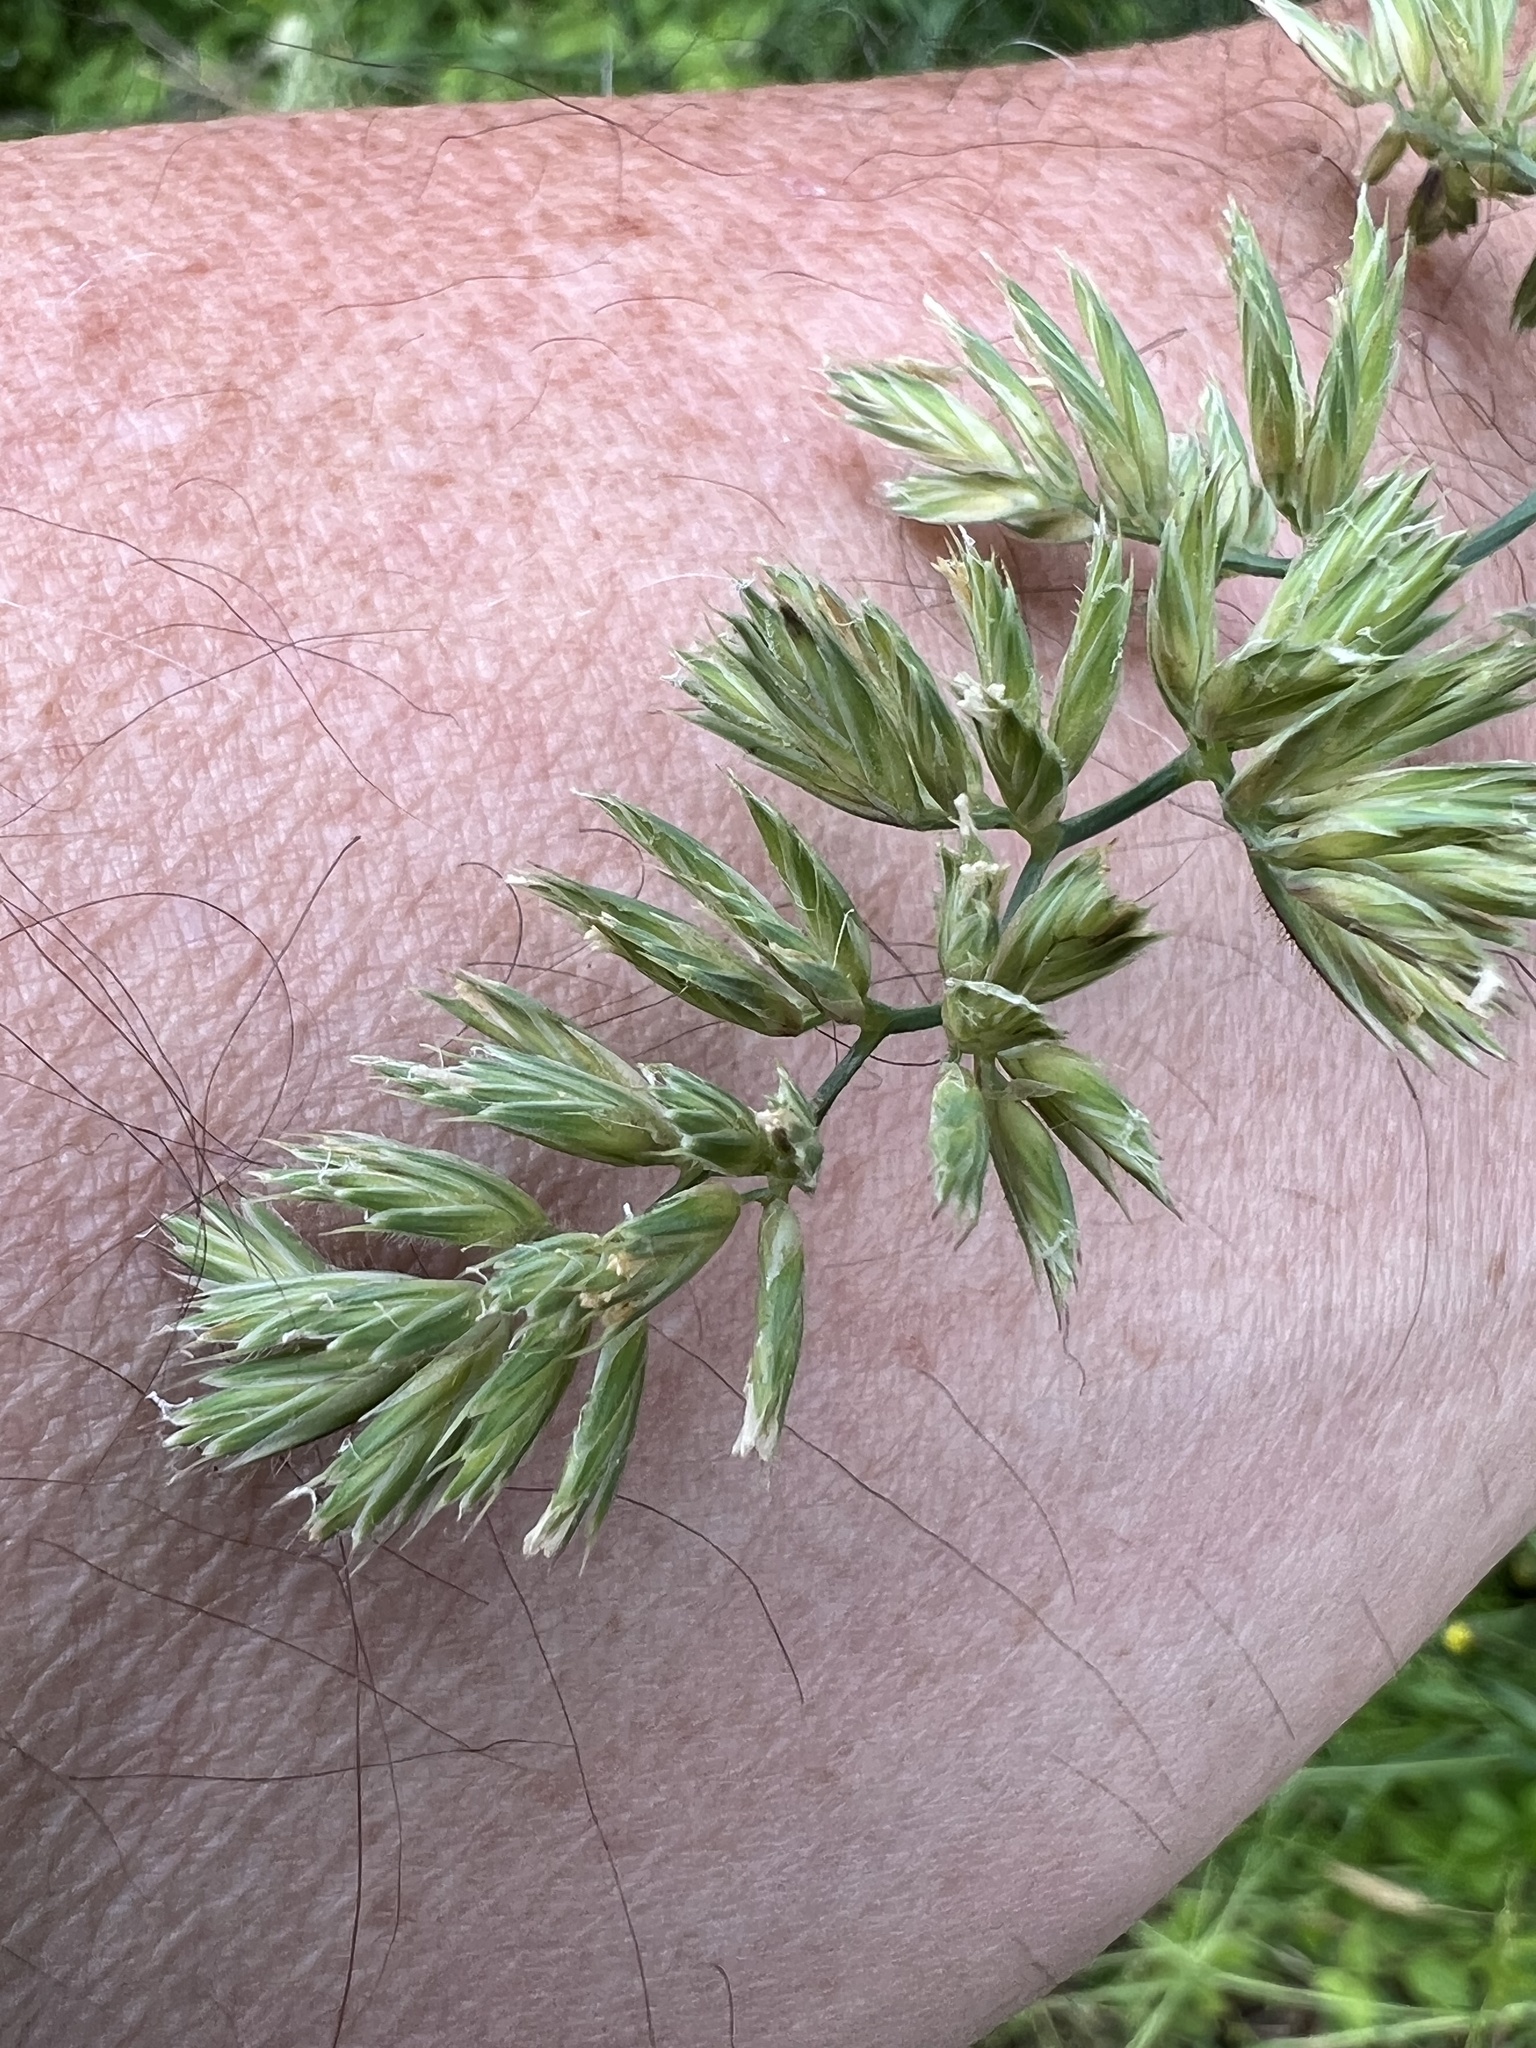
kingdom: Plantae
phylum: Tracheophyta
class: Liliopsida
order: Poales
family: Poaceae
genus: Dactylis
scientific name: Dactylis glomerata
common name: Orchardgrass
